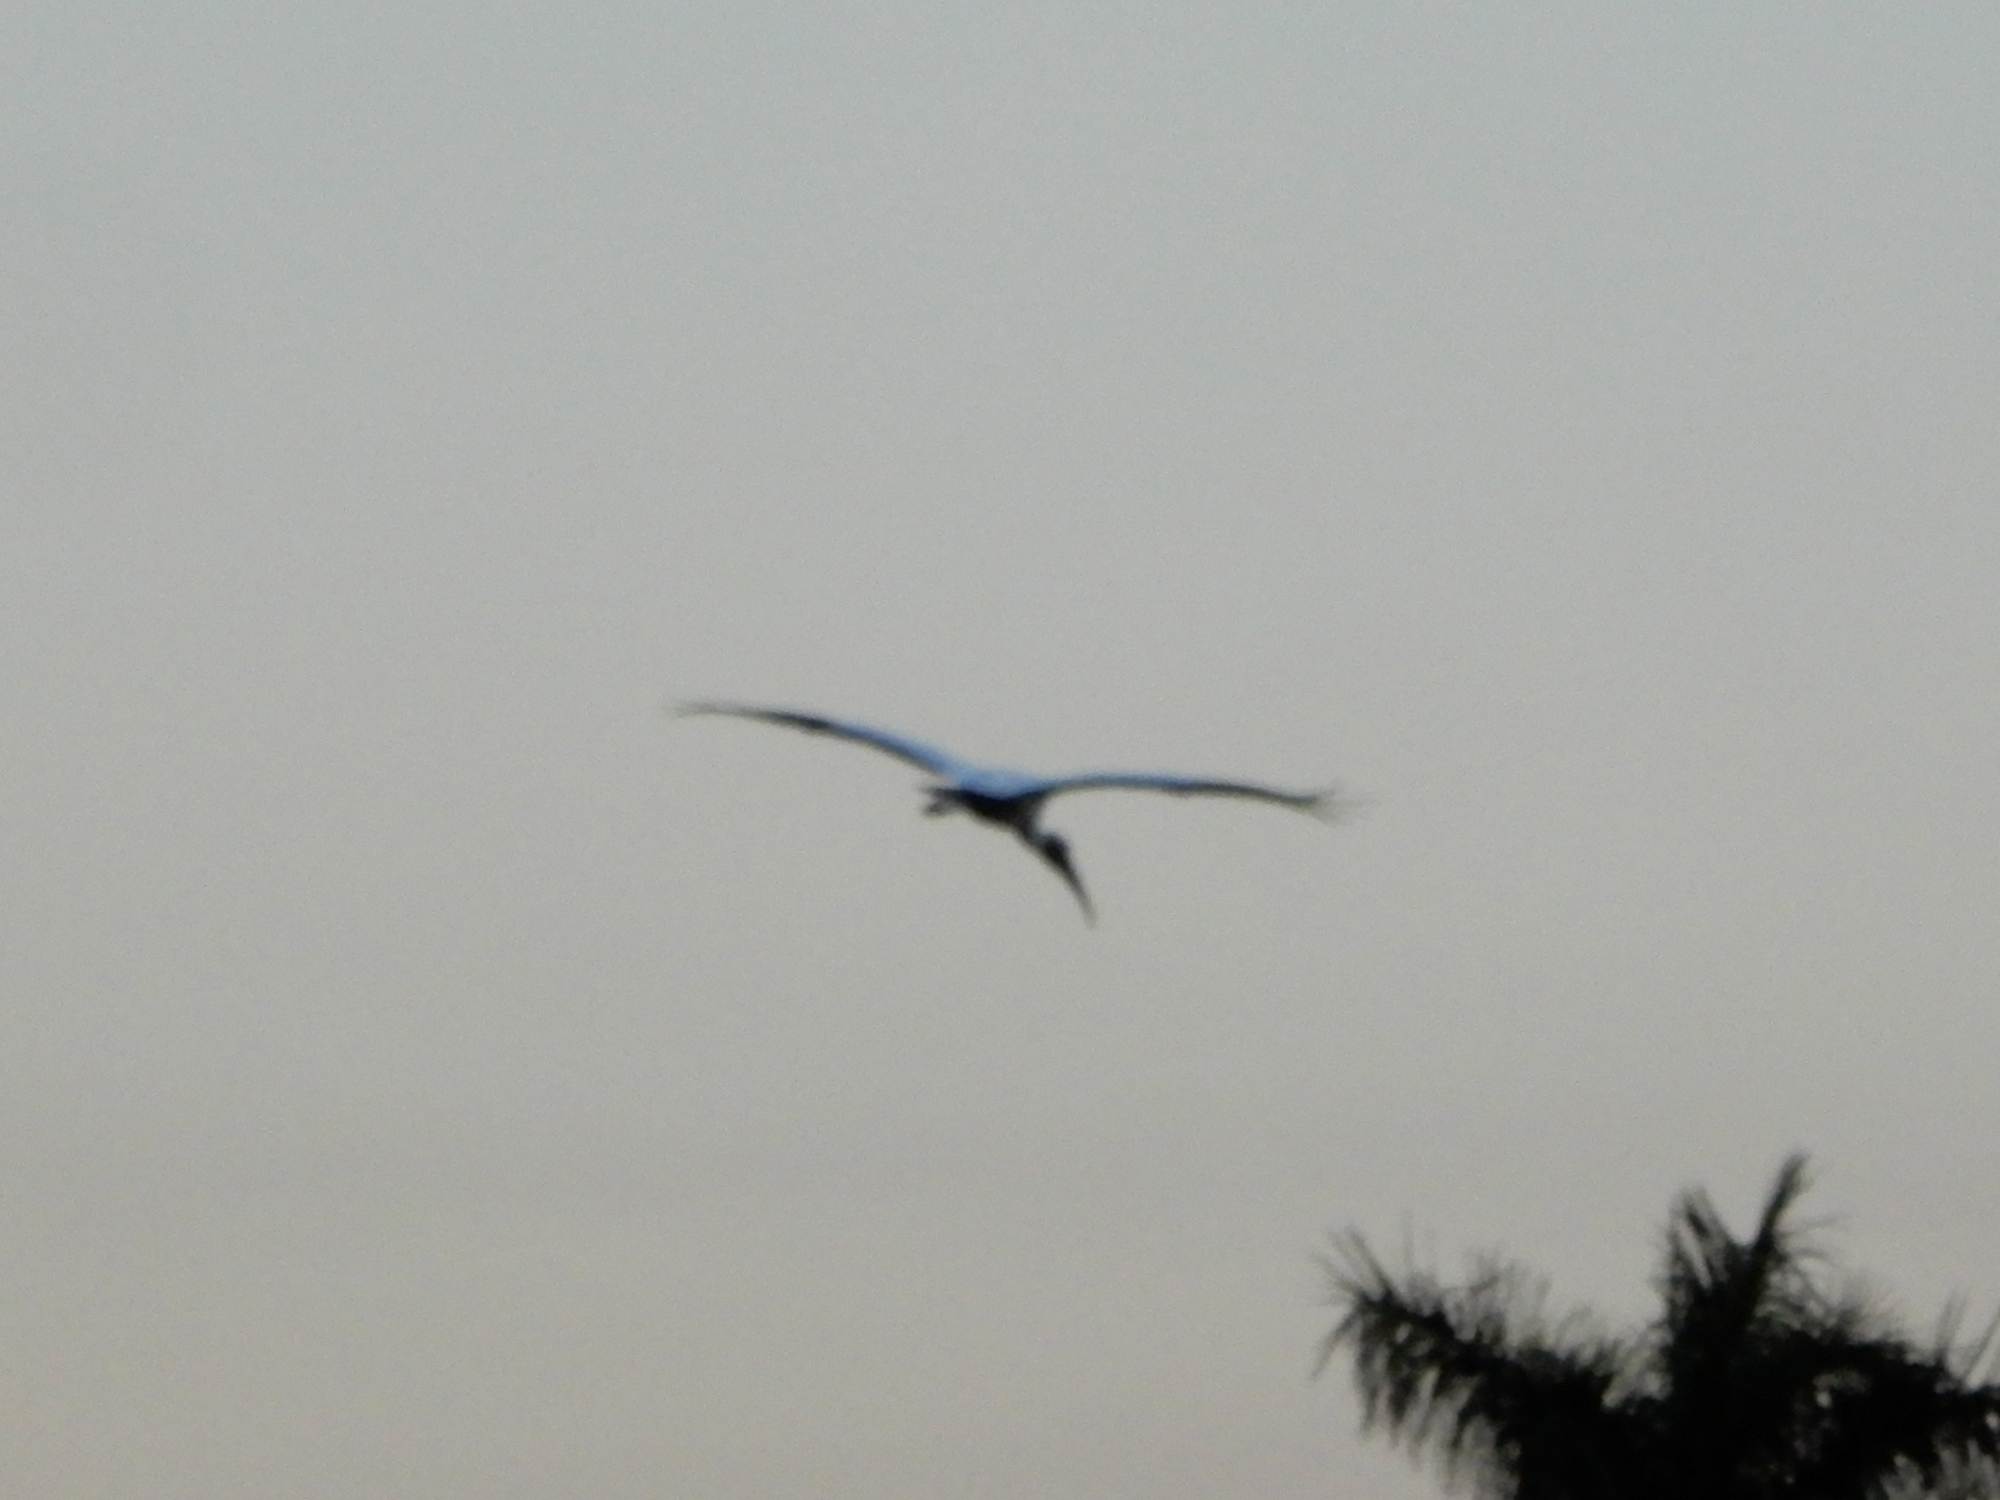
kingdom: Animalia
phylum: Chordata
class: Aves
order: Ciconiiformes
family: Ciconiidae
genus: Mycteria
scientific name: Mycteria americana
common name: Wood stork
